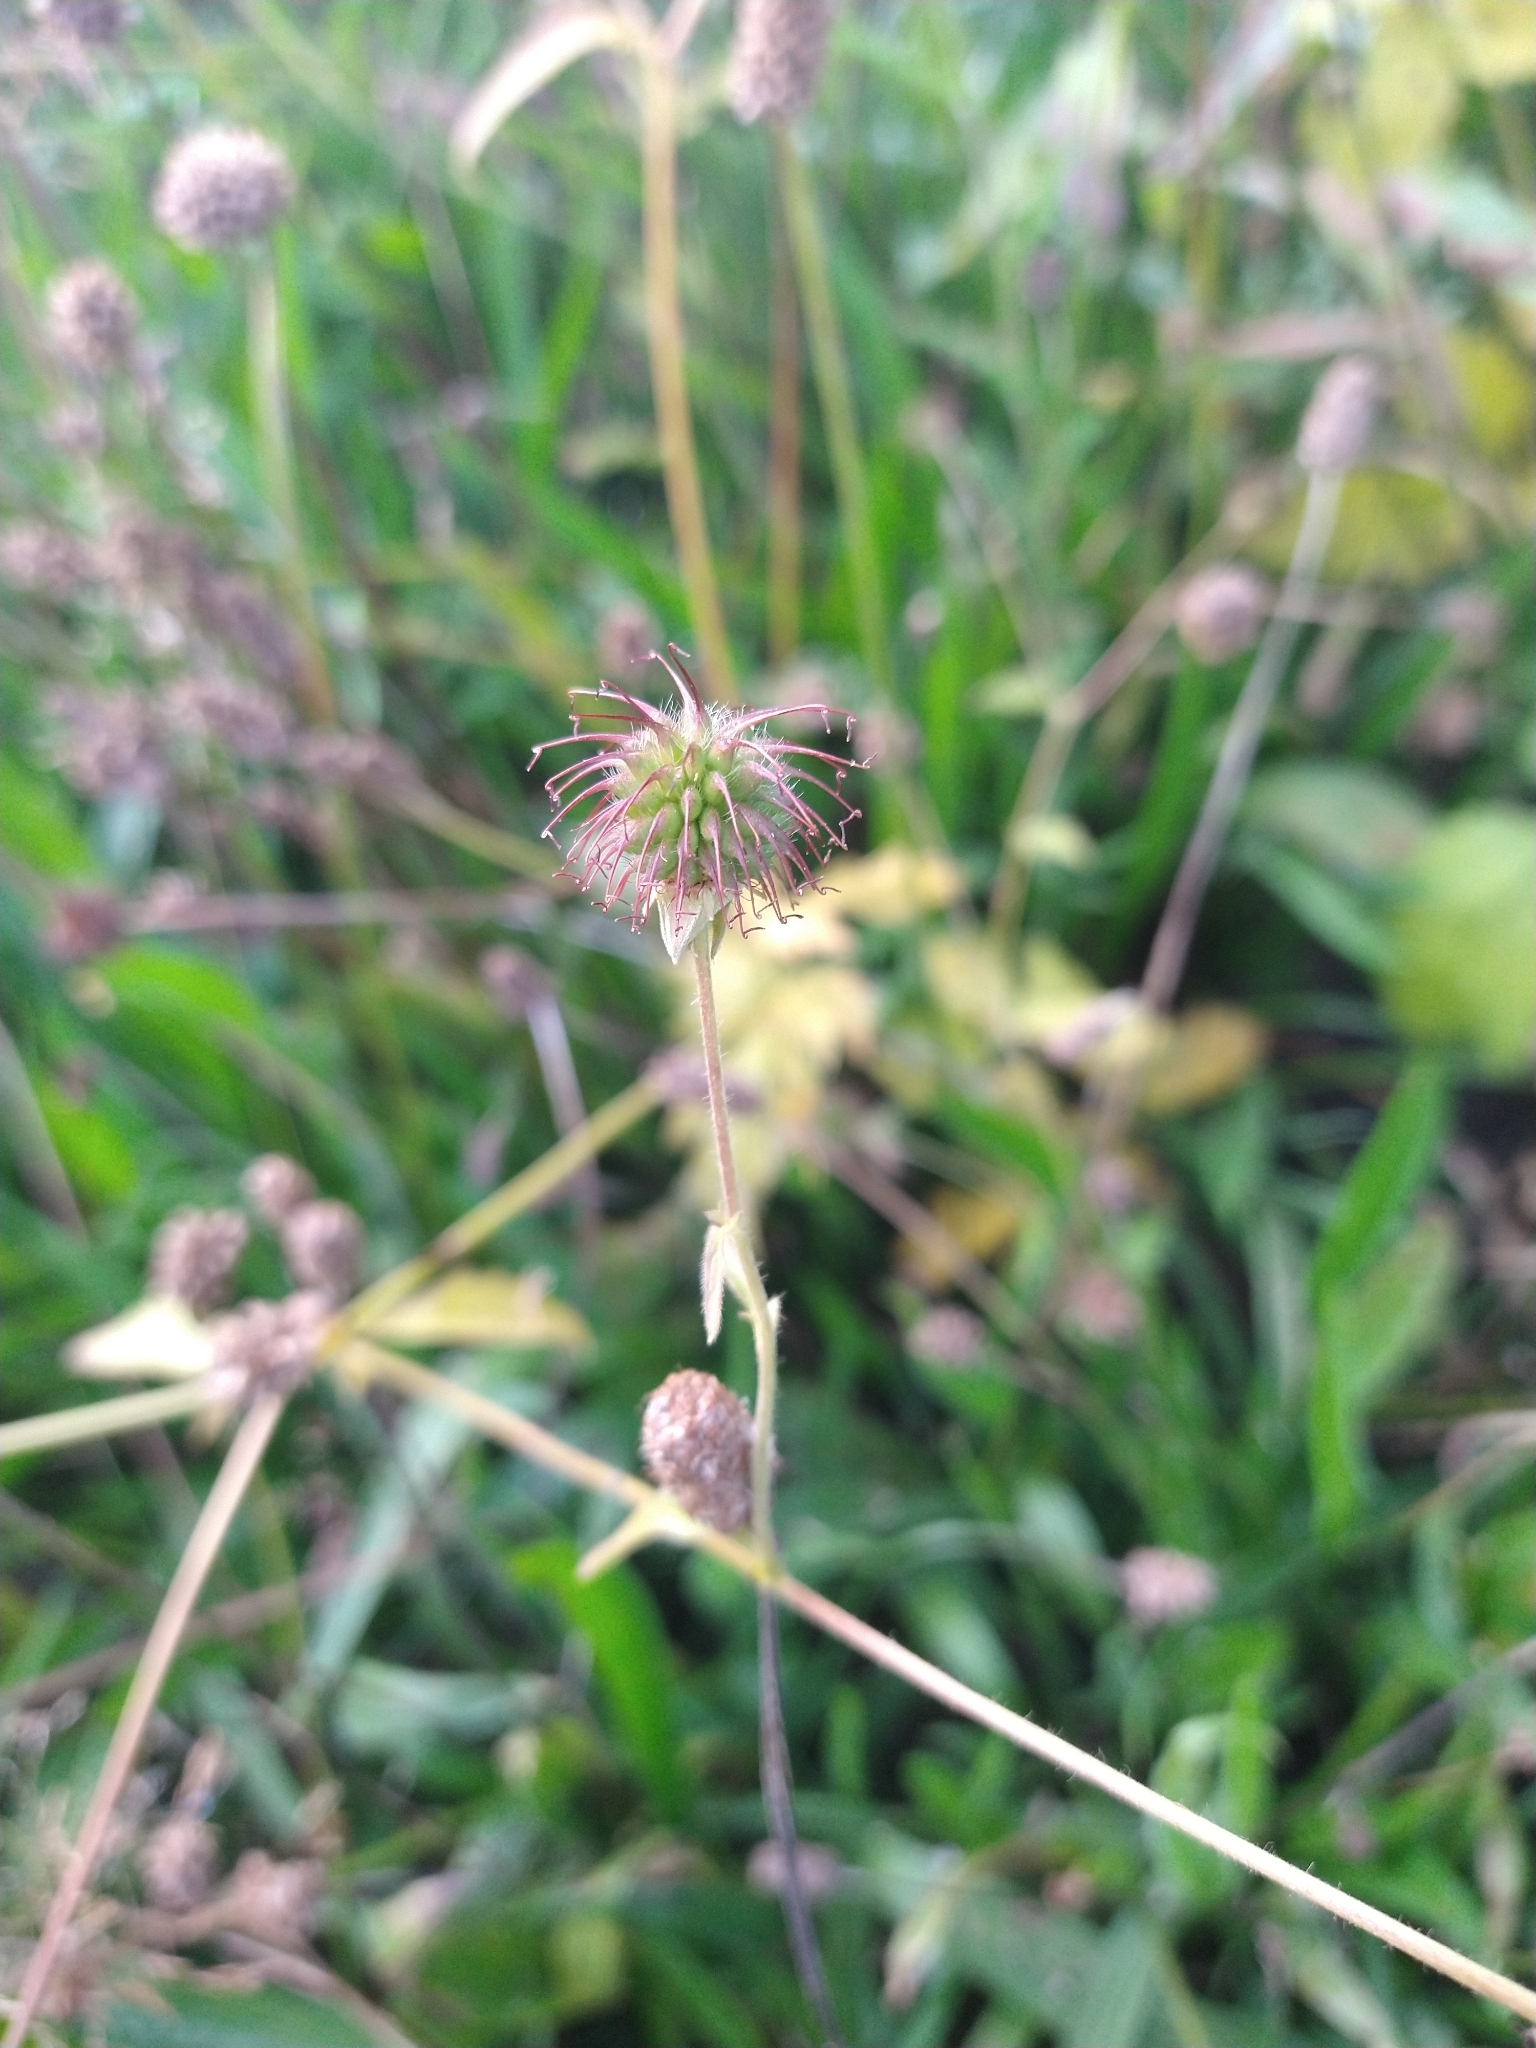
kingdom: Plantae
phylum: Tracheophyta
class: Magnoliopsida
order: Rosales
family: Rosaceae
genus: Geum
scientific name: Geum urbanum
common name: Wood avens
